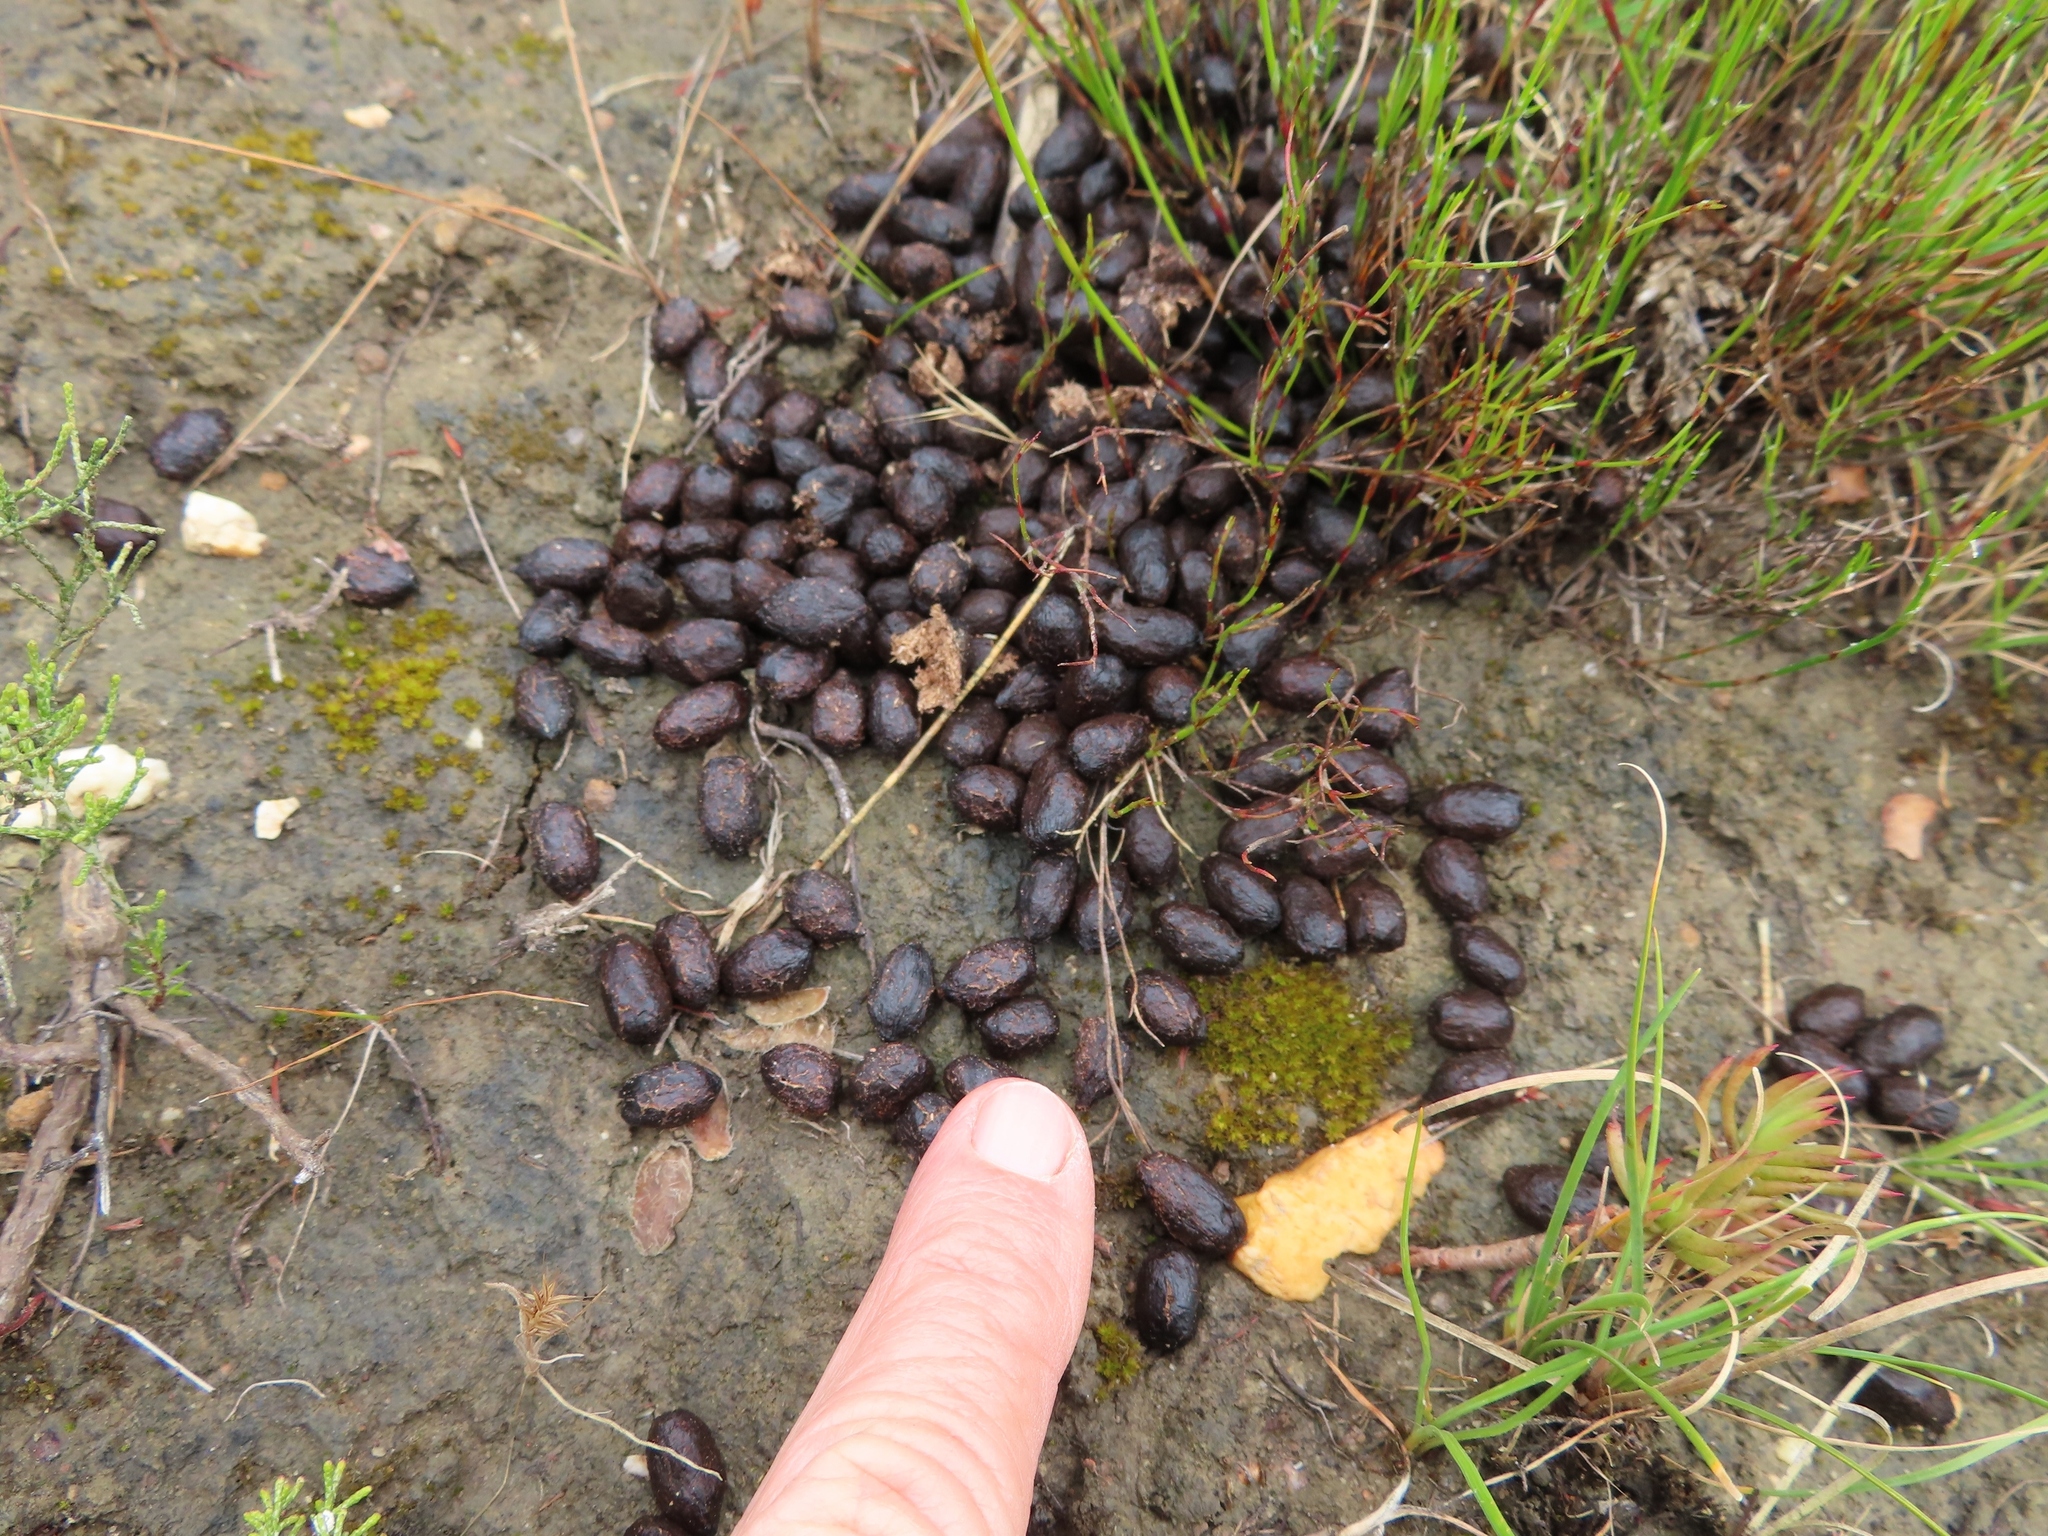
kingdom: Animalia
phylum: Chordata
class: Mammalia
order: Artiodactyla
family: Bovidae
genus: Sylvicapra
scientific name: Sylvicapra grimmia
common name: Bush duiker
